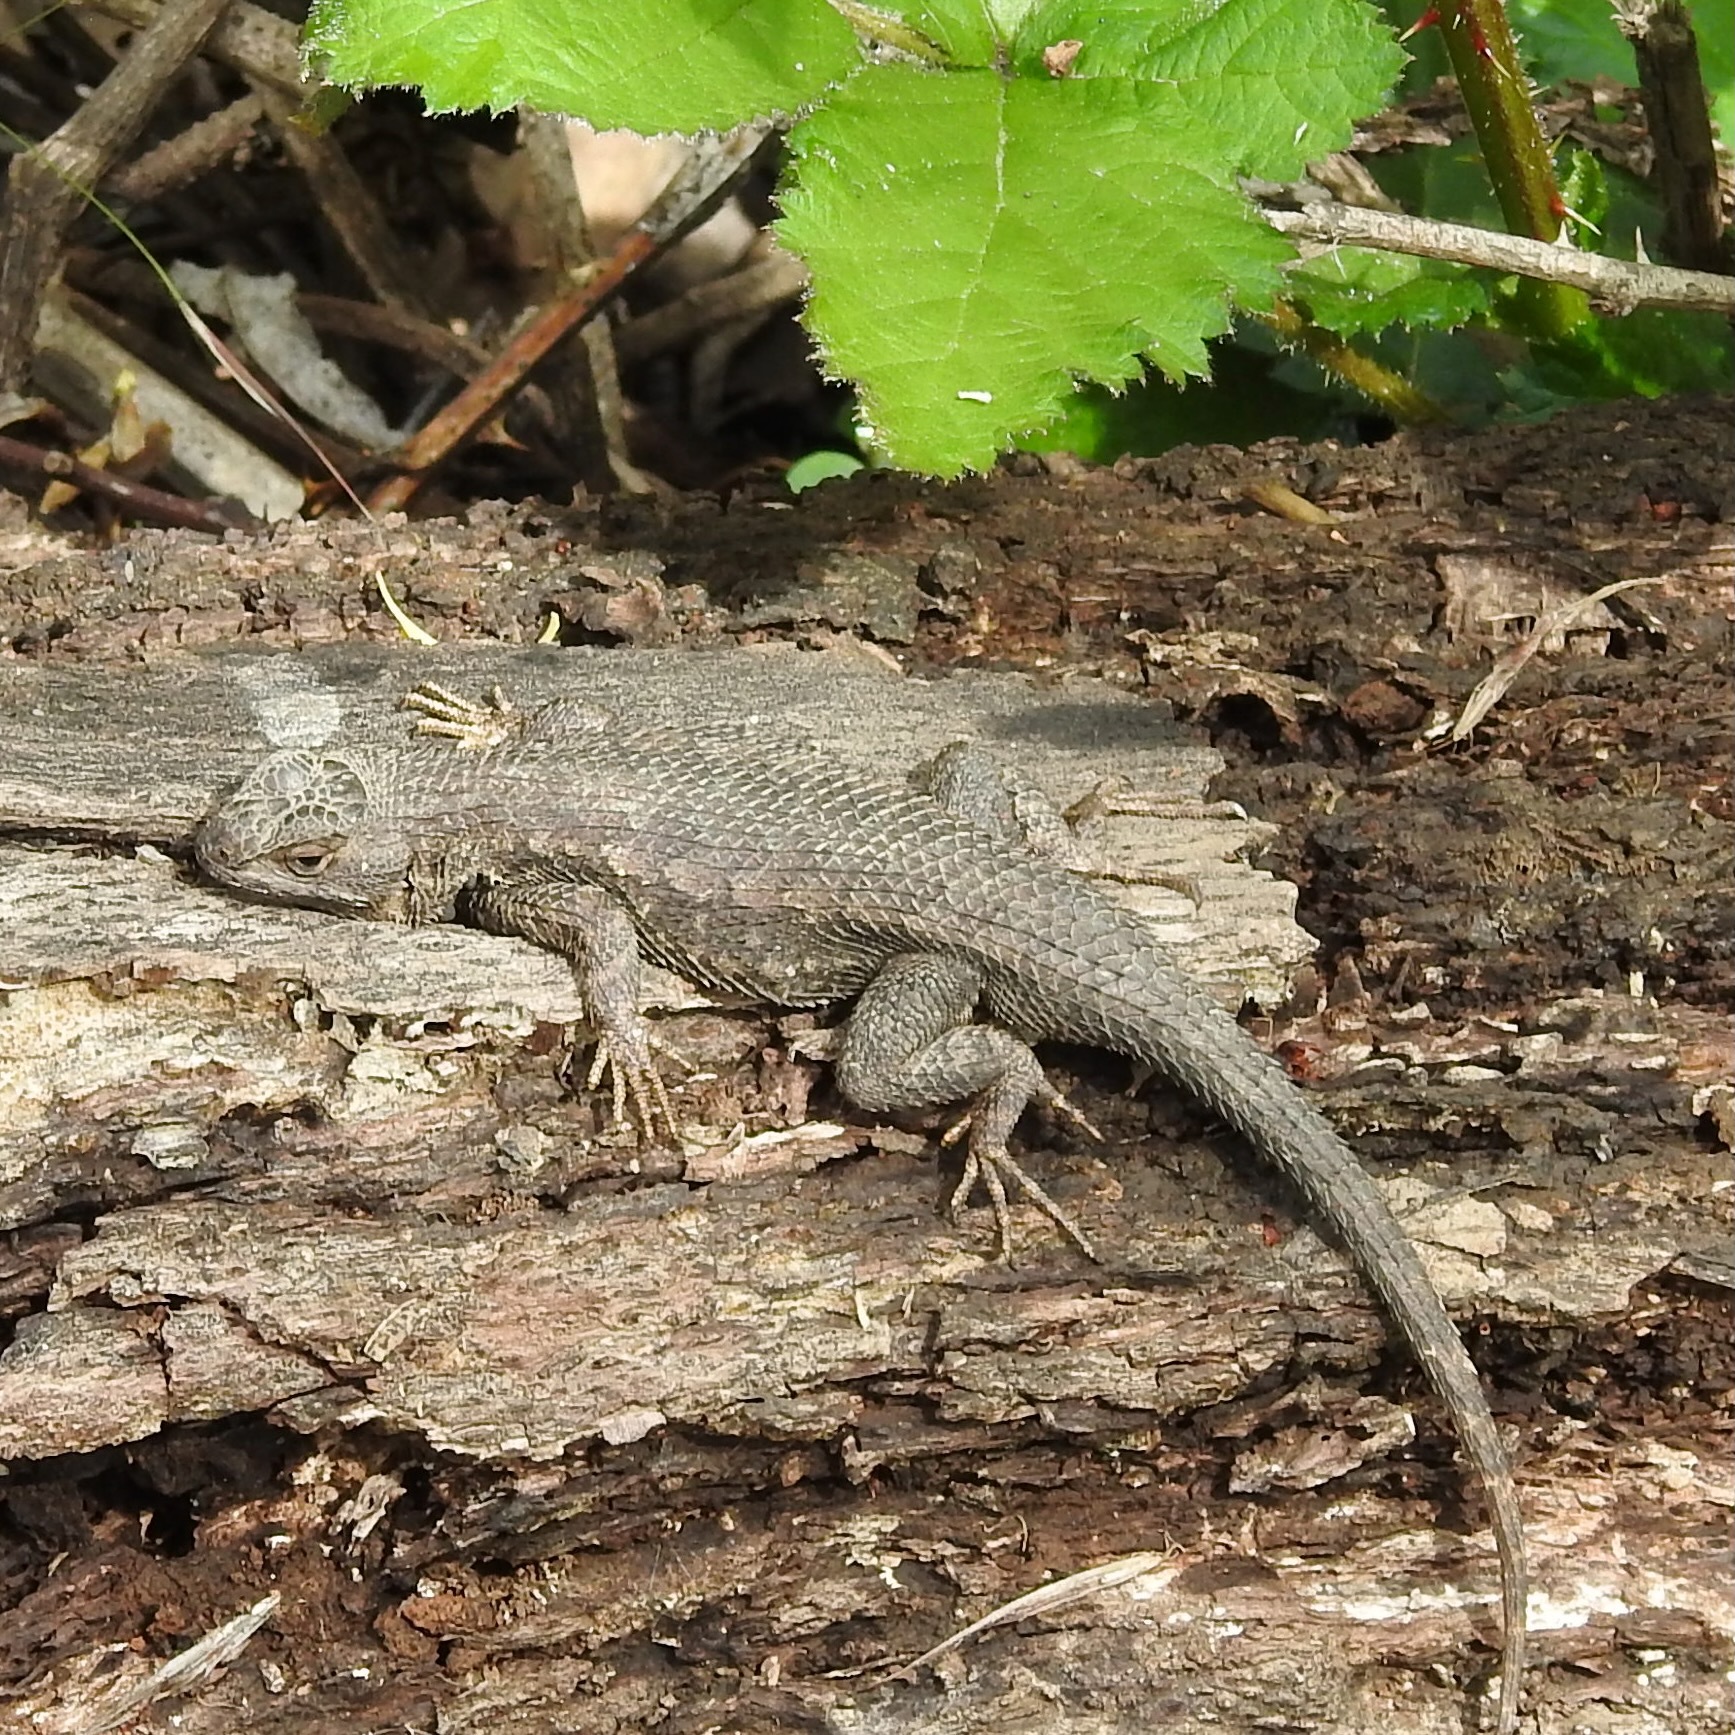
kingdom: Animalia
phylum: Chordata
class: Squamata
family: Phrynosomatidae
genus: Sceloporus
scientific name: Sceloporus occidentalis
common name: Western fence lizard
